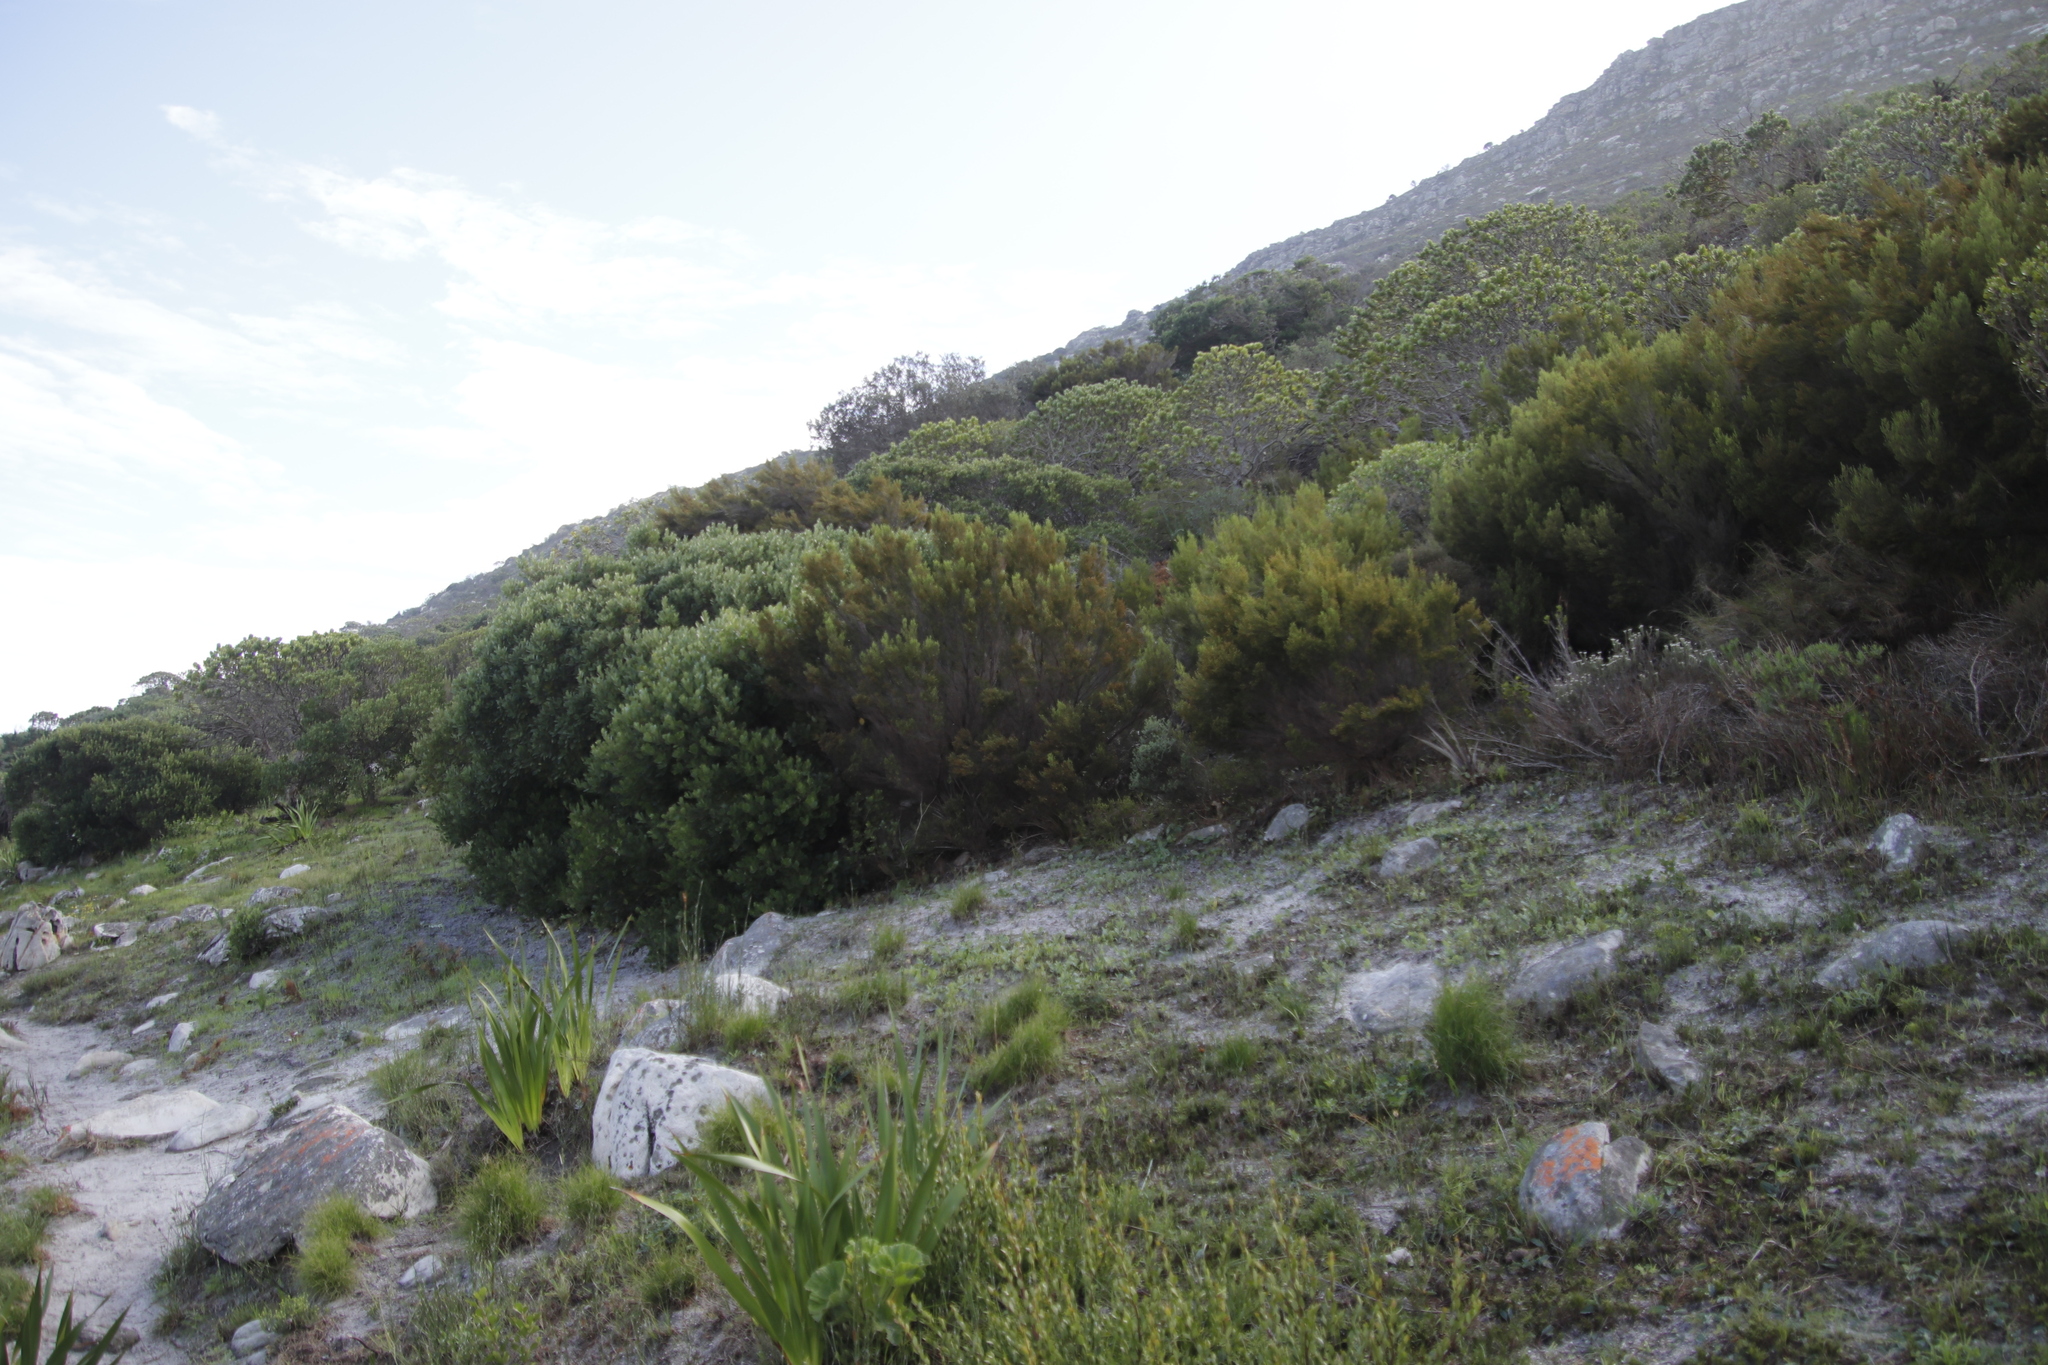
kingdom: Plantae
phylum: Tracheophyta
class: Magnoliopsida
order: Ericales
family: Ericaceae
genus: Erica
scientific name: Erica tristis
